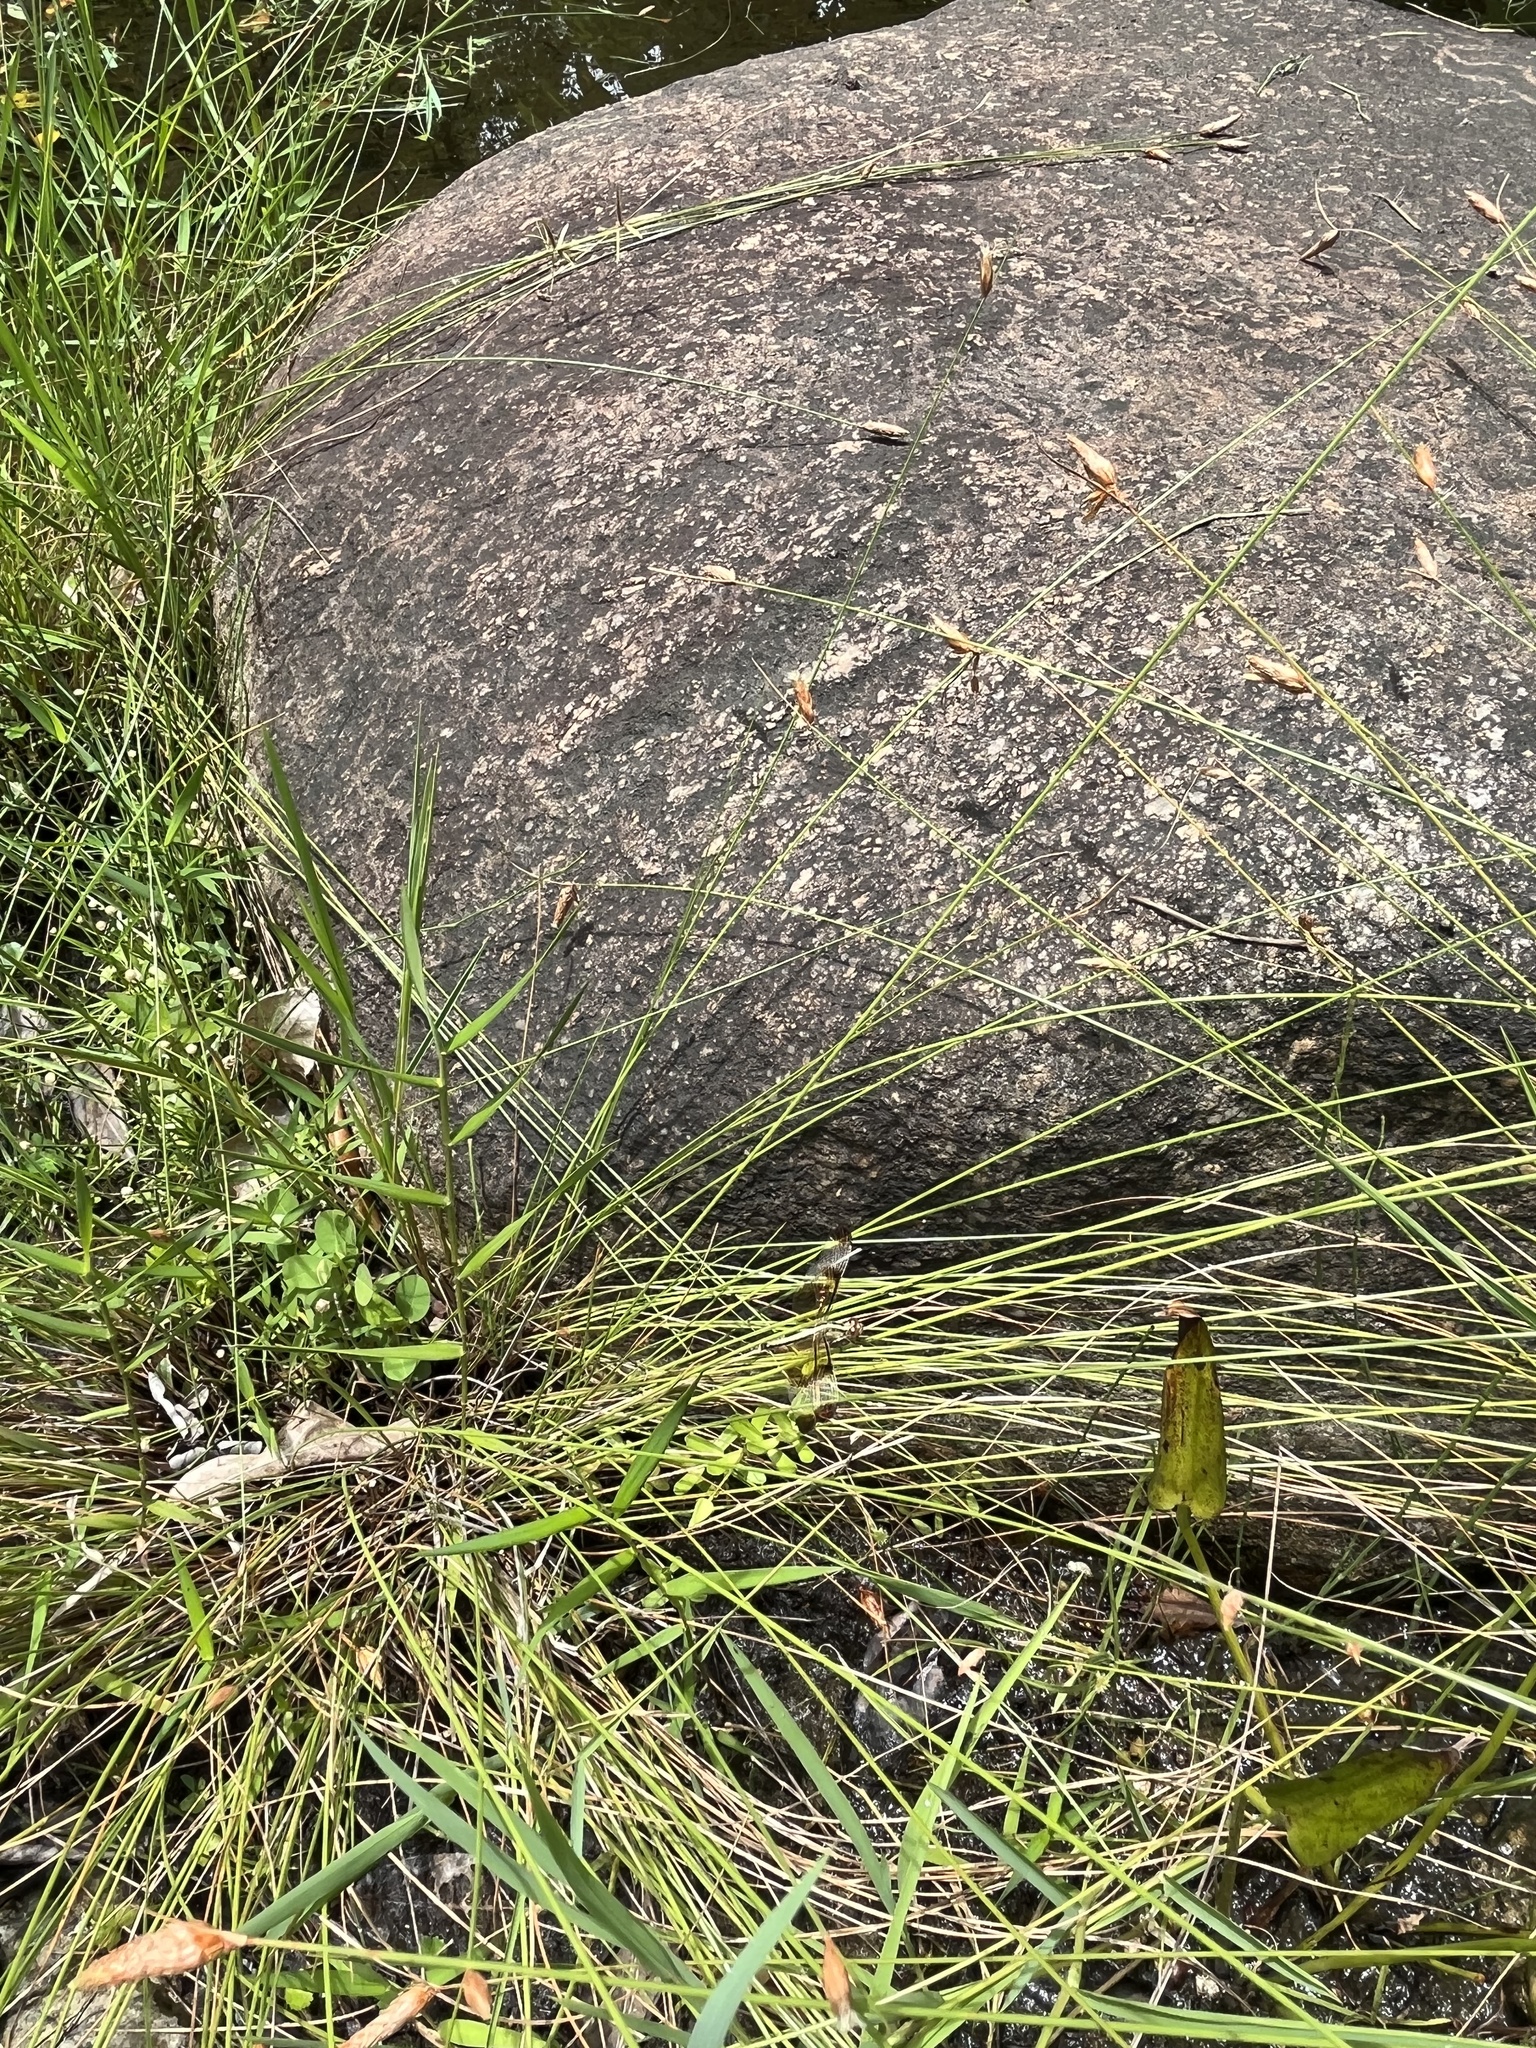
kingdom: Animalia
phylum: Arthropoda
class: Insecta
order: Odonata
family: Libellulidae
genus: Neurothemis
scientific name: Neurothemis tullia
